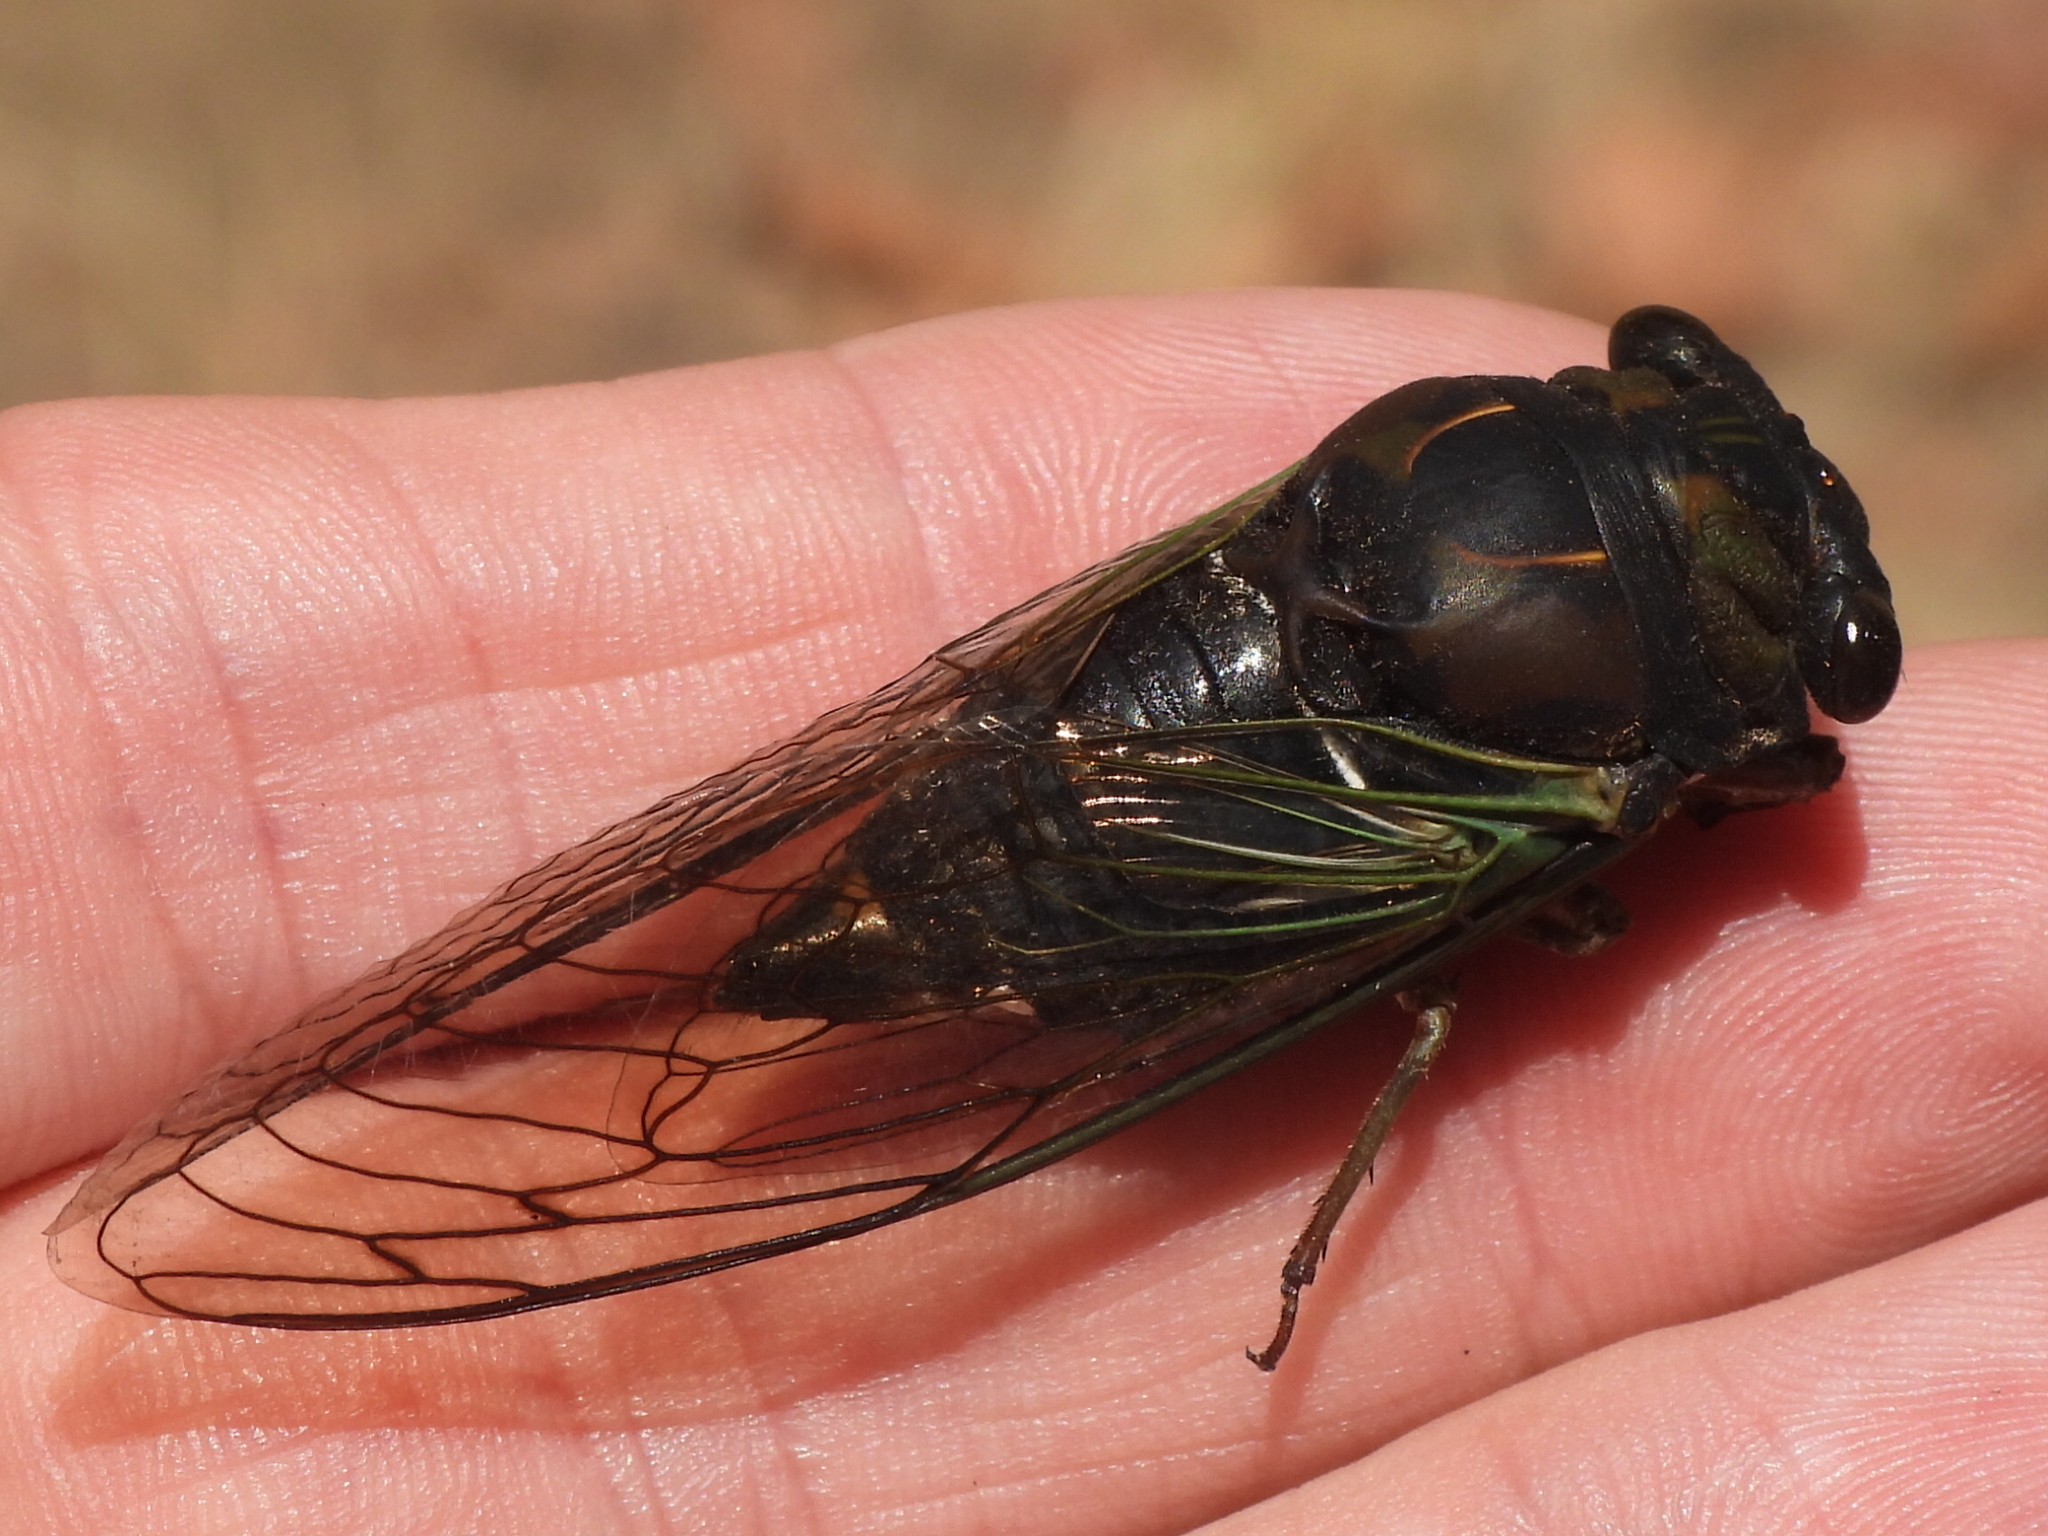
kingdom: Animalia
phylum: Arthropoda
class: Insecta
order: Hemiptera
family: Cicadidae
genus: Neotibicen
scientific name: Neotibicen lyricen
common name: Lyric cicada
